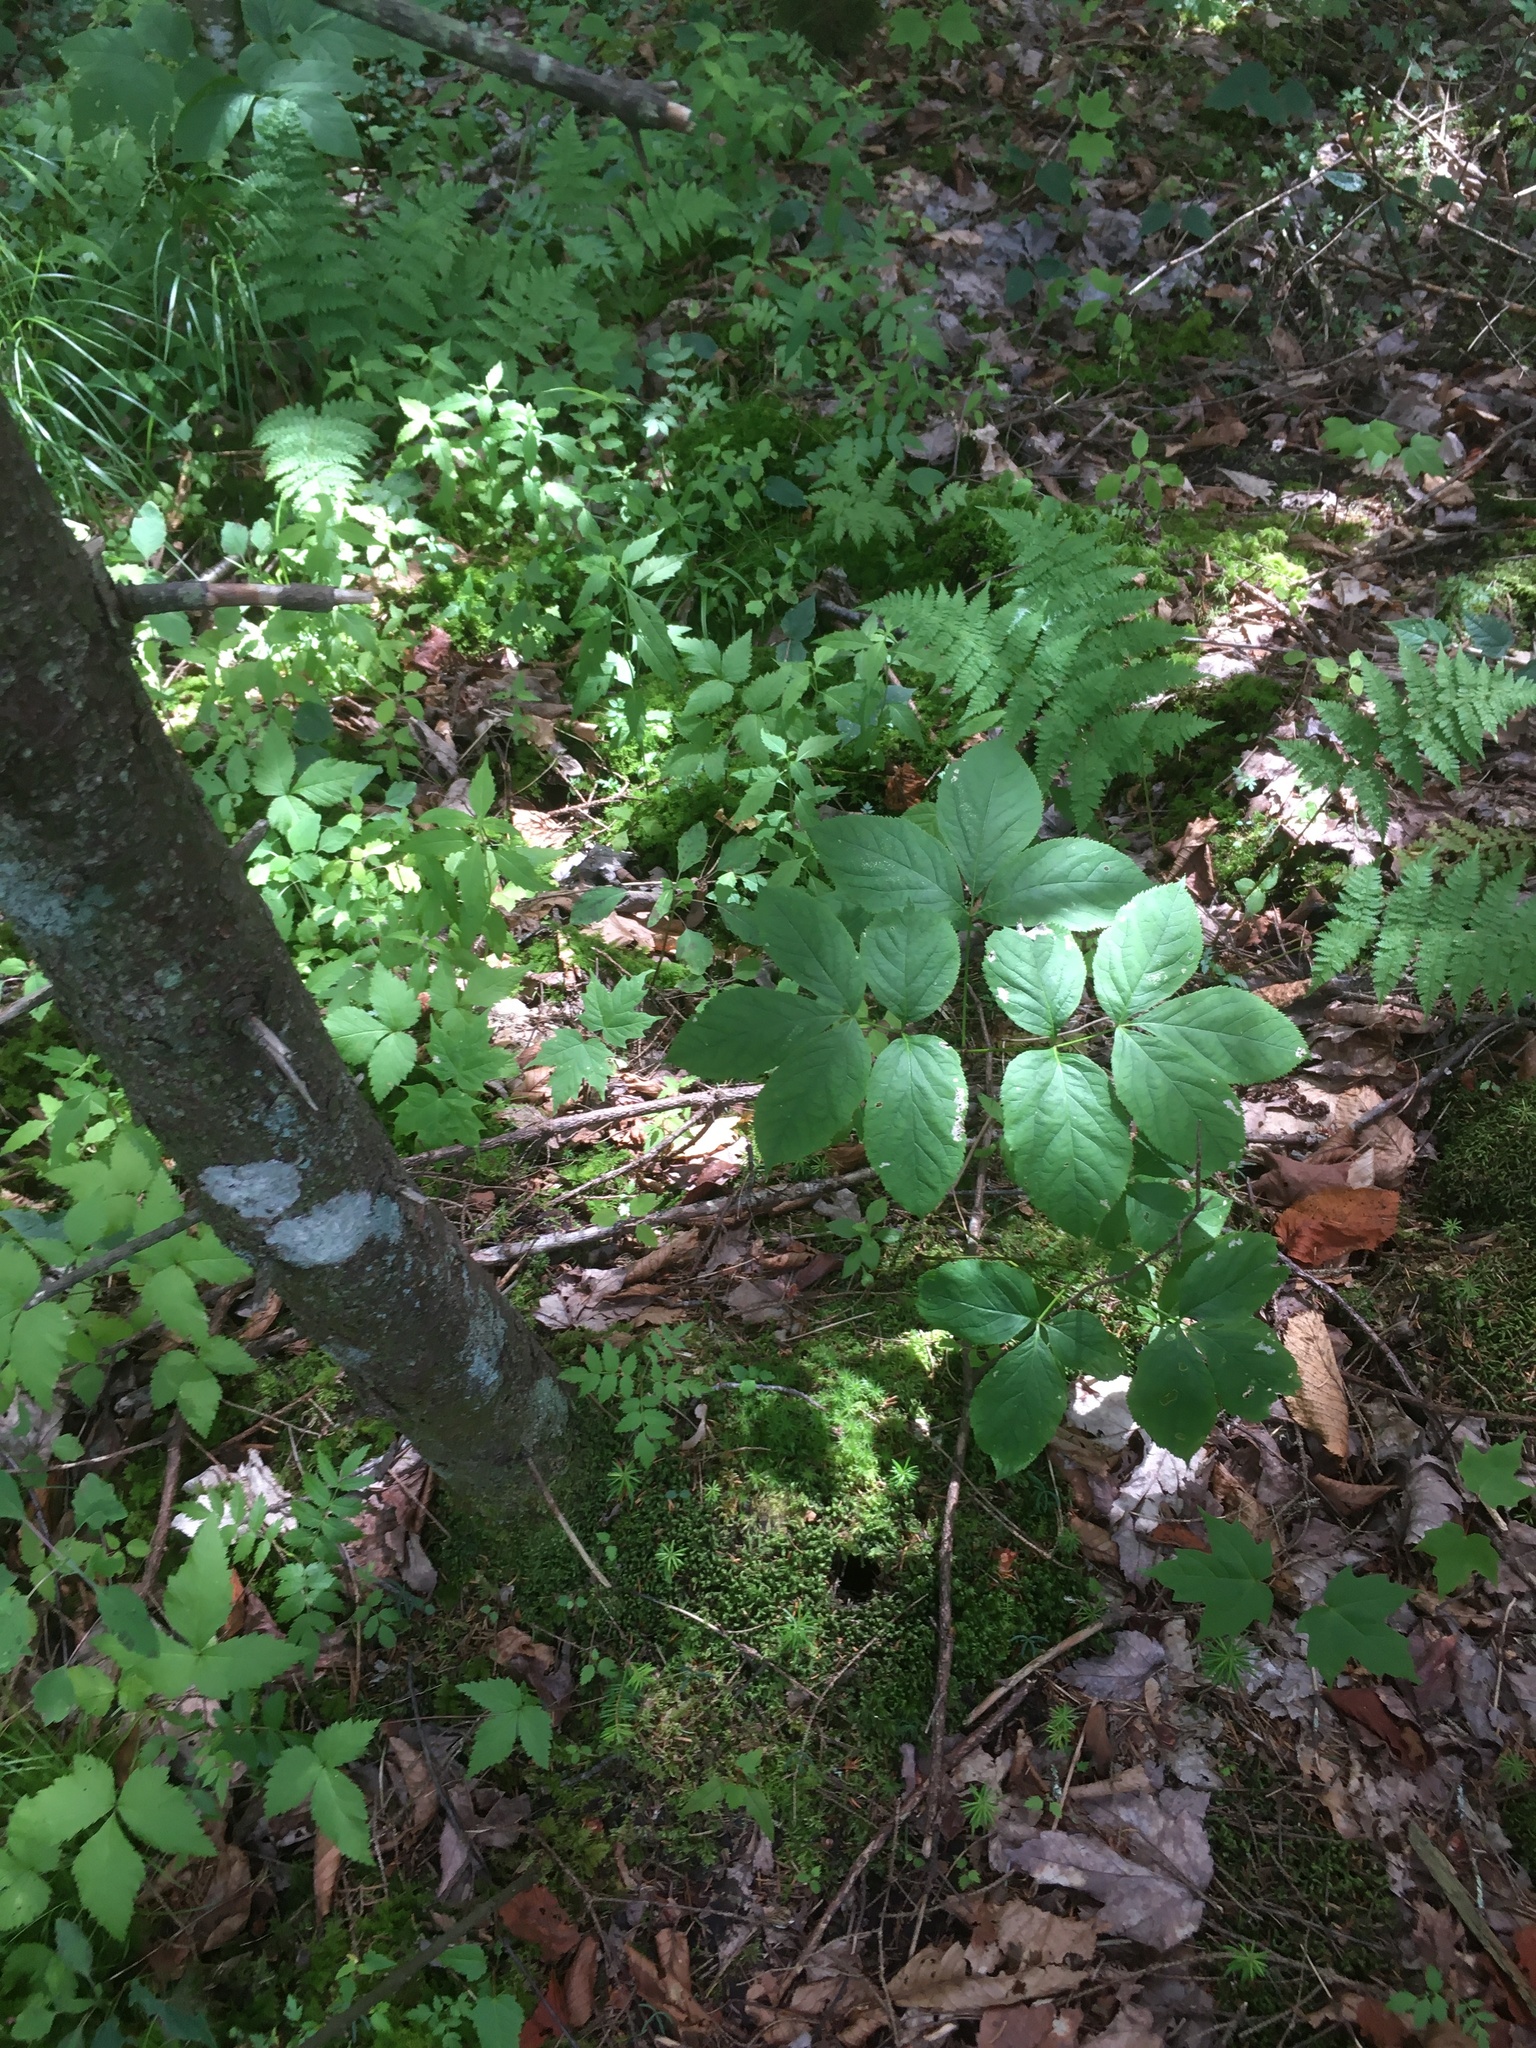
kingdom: Plantae
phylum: Tracheophyta
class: Magnoliopsida
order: Apiales
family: Araliaceae
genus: Aralia
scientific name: Aralia nudicaulis
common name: Wild sarsaparilla
